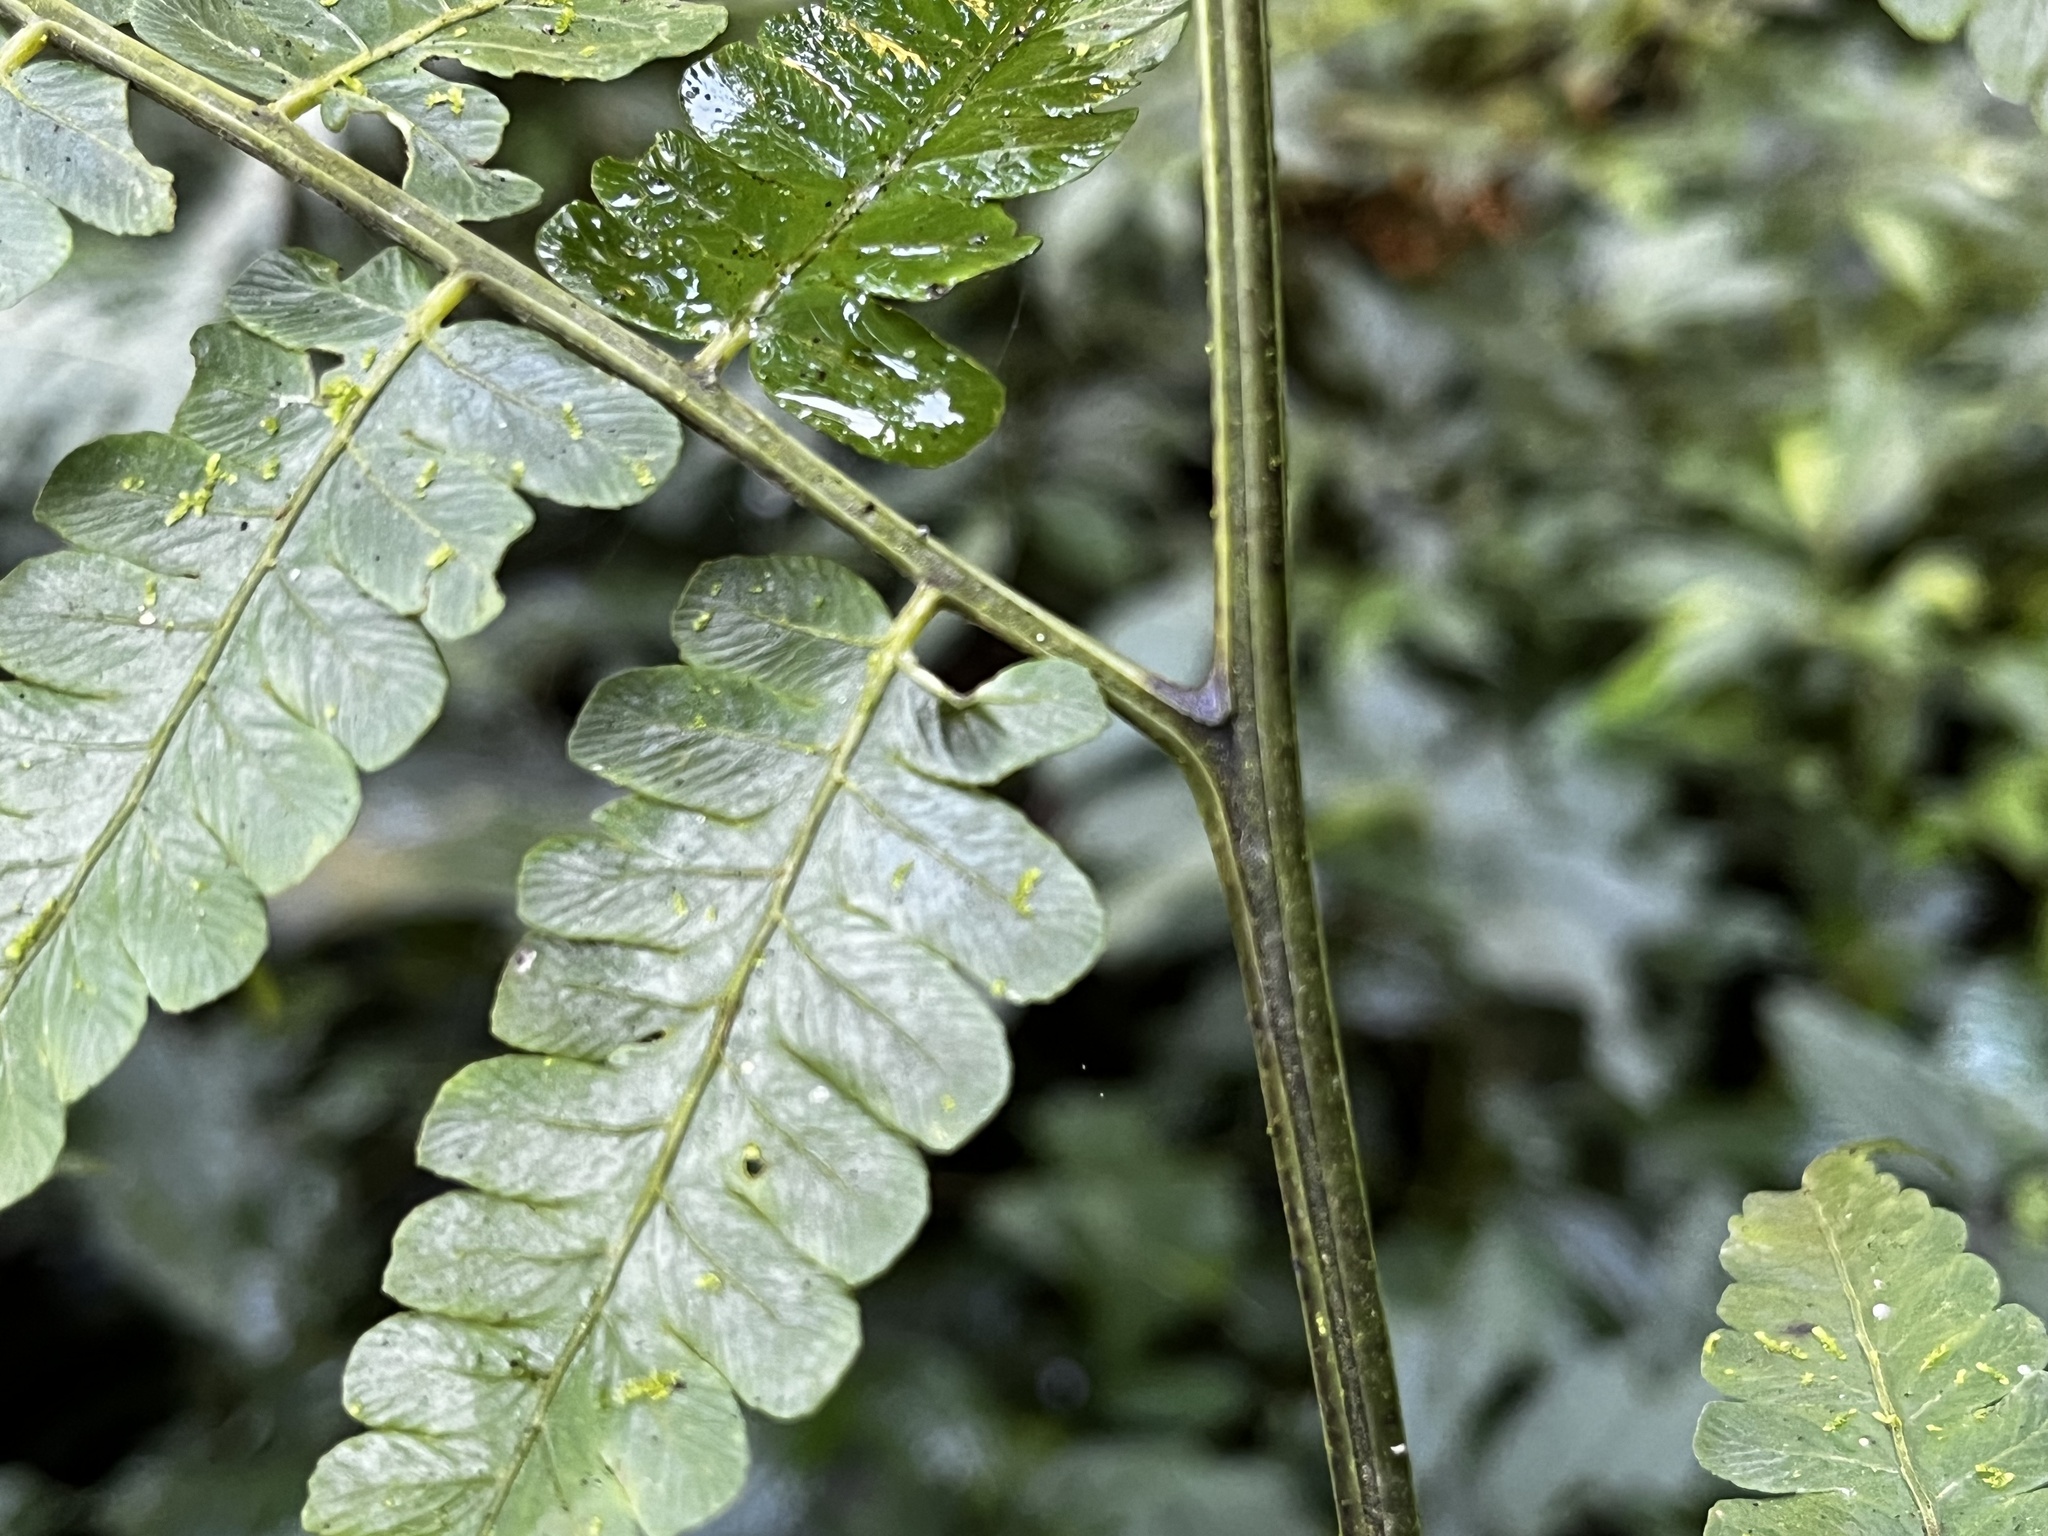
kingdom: Plantae
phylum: Tracheophyta
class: Polypodiopsida
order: Polypodiales
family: Athyriaceae
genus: Diplazium
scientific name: Diplazium doederleinii
